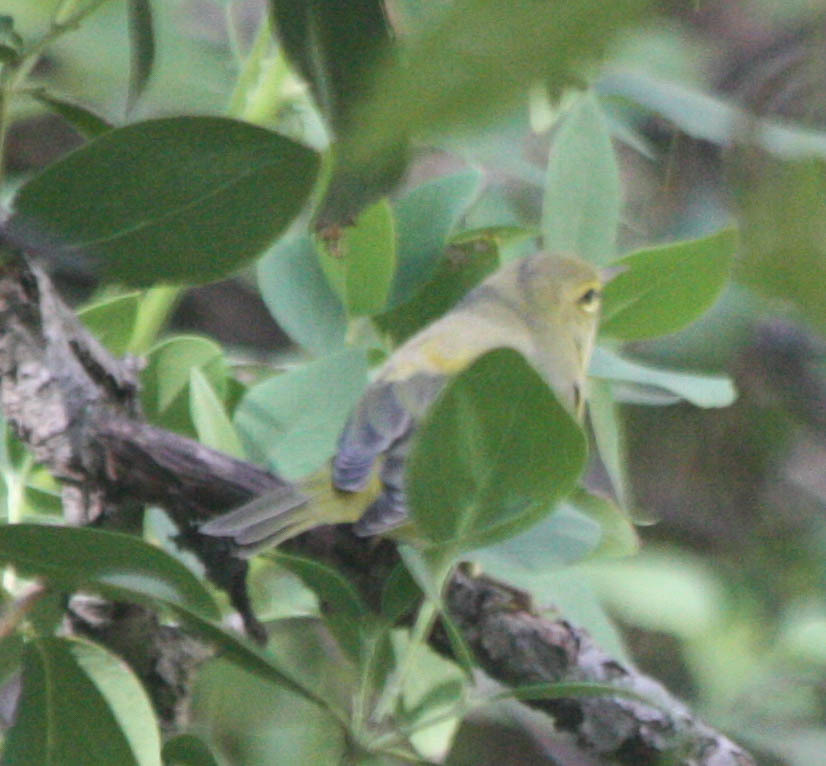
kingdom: Animalia
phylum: Chordata
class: Aves
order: Passeriformes
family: Parulidae
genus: Leiothlypis
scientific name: Leiothlypis celata
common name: Orange-crowned warbler
